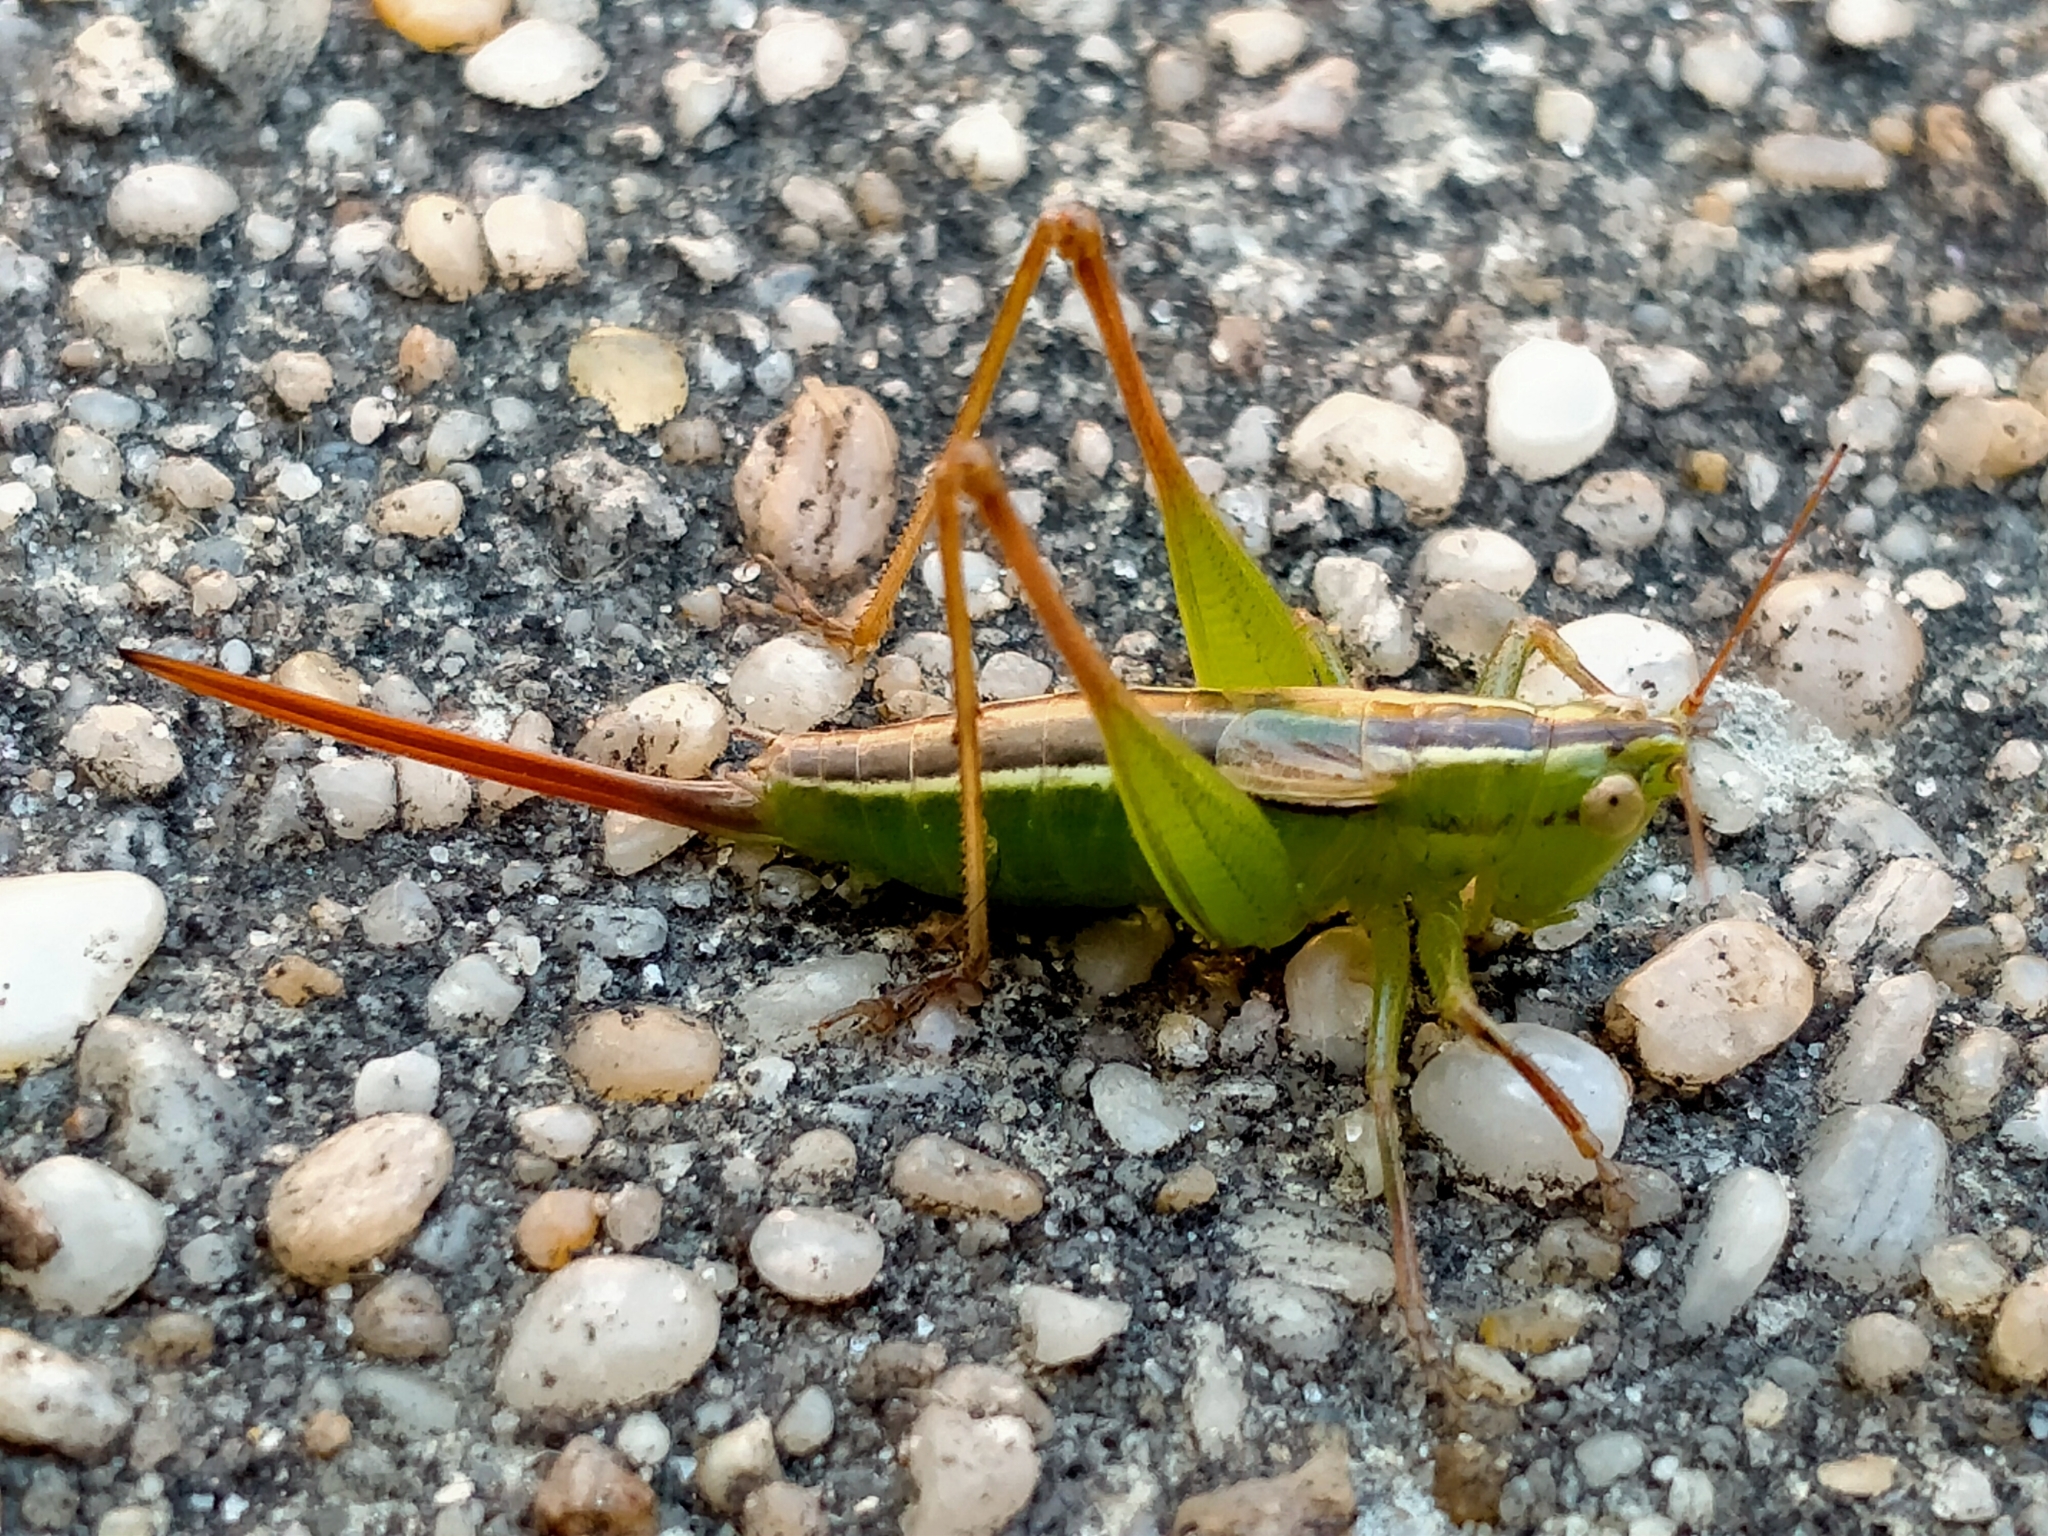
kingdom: Animalia
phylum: Arthropoda
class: Insecta
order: Orthoptera
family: Tettigoniidae
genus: Conocephalus
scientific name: Conocephalus bilineatus
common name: Small meadow katydid
